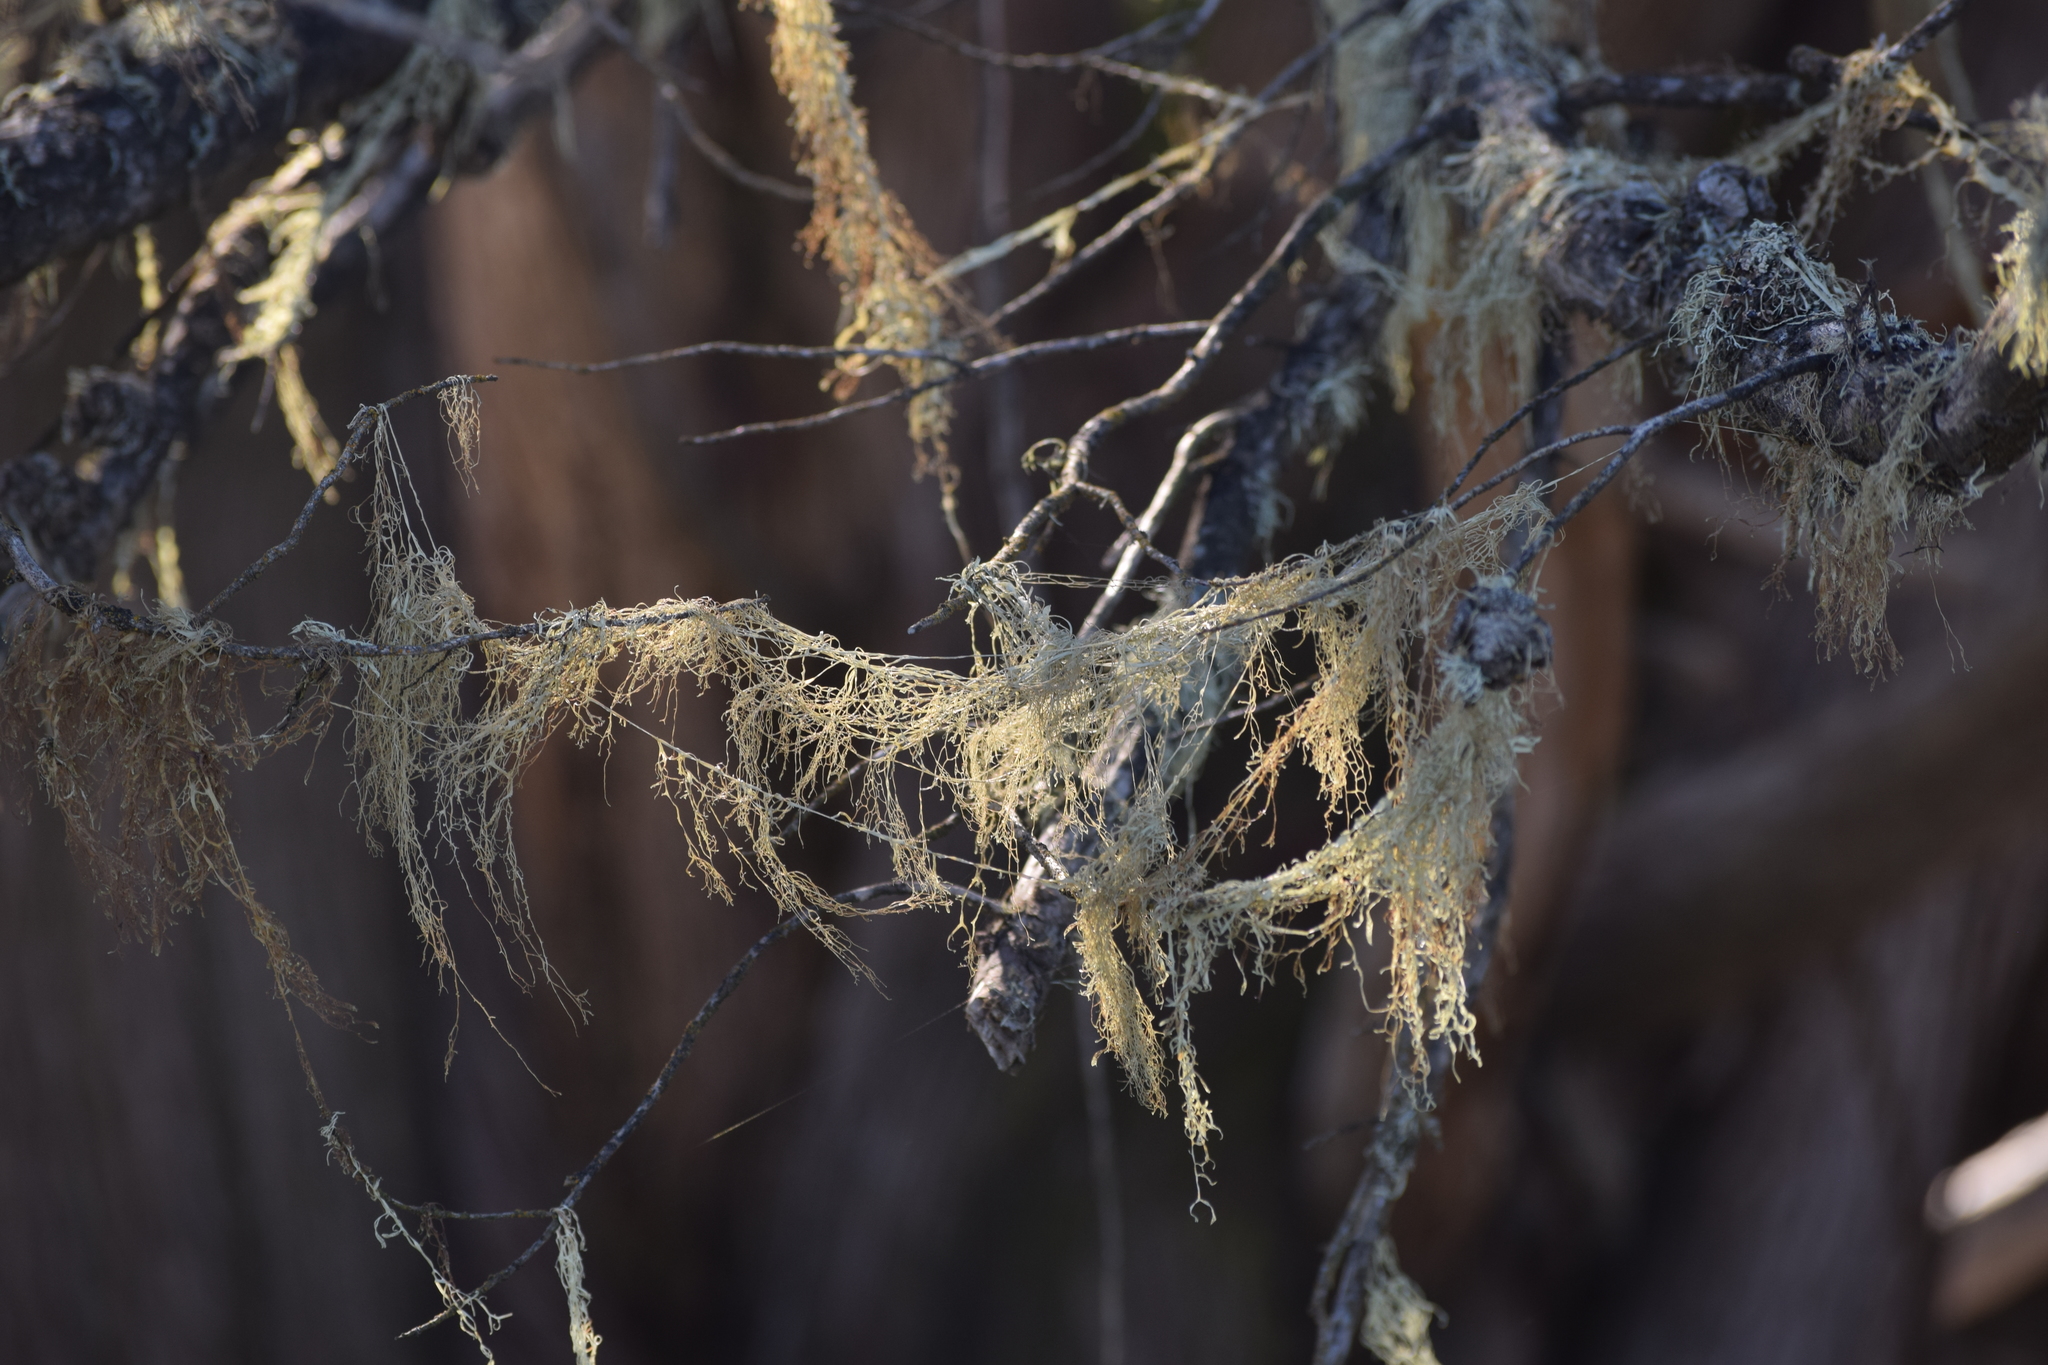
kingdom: Fungi
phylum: Ascomycota
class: Lecanoromycetes
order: Lecanorales
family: Ramalinaceae
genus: Ramalina
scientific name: Ramalina menziesii
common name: Lace lichen
